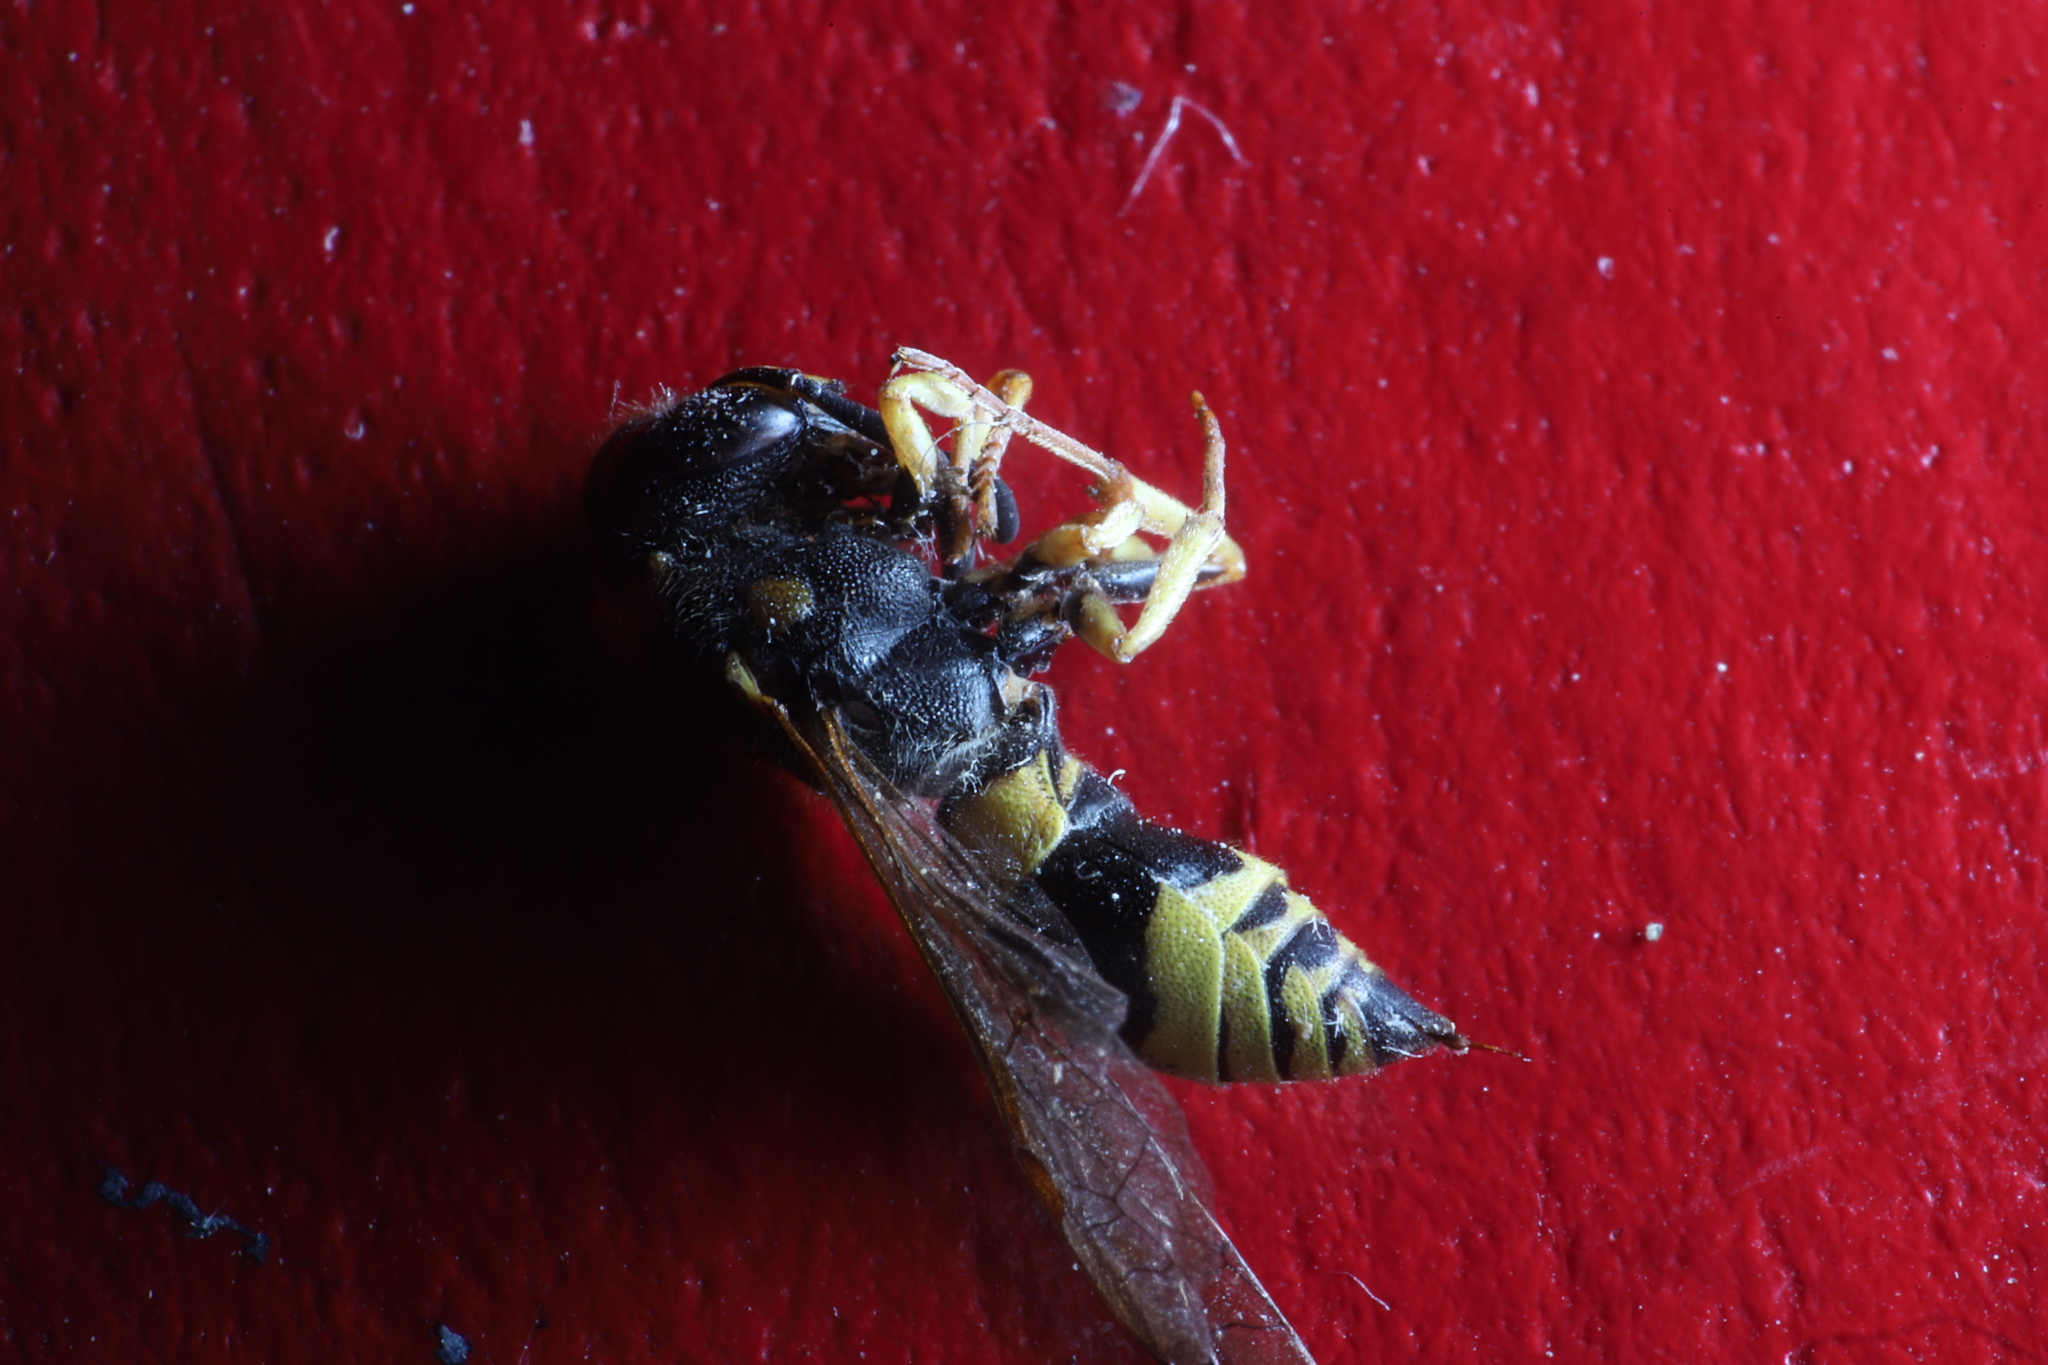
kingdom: Animalia
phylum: Arthropoda
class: Insecta
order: Hymenoptera
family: Vespidae
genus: Ancistrocerus
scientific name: Ancistrocerus gazella
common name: European tube wasp
